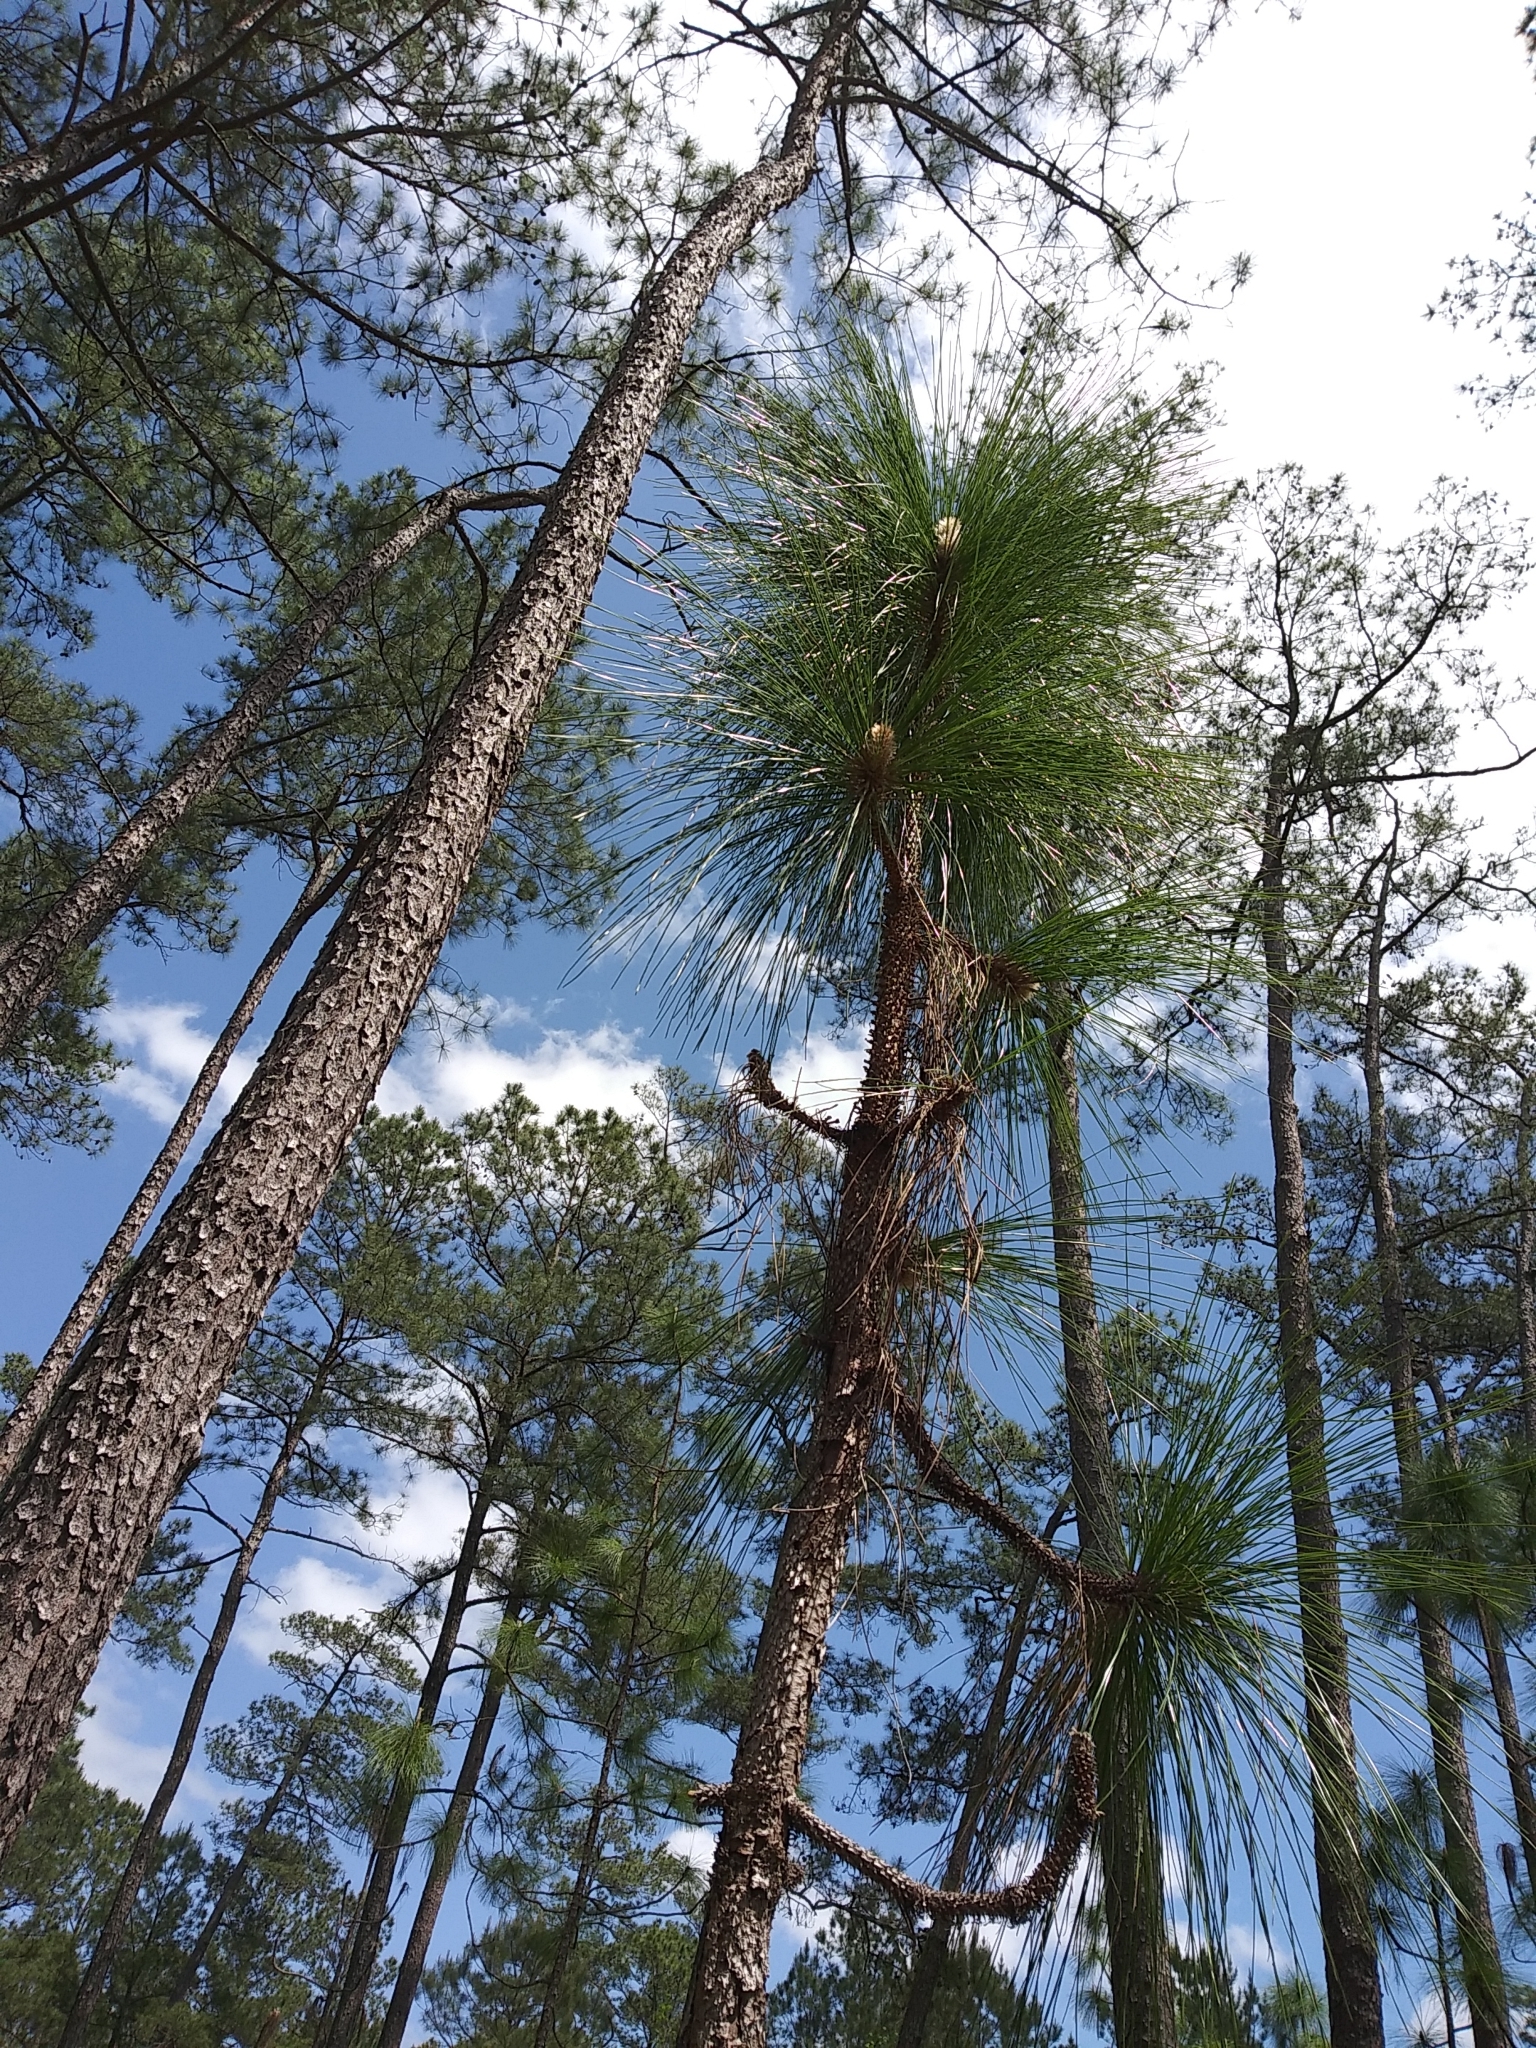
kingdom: Plantae
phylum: Tracheophyta
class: Pinopsida
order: Pinales
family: Pinaceae
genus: Pinus
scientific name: Pinus palustris
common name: Longleaf pine
